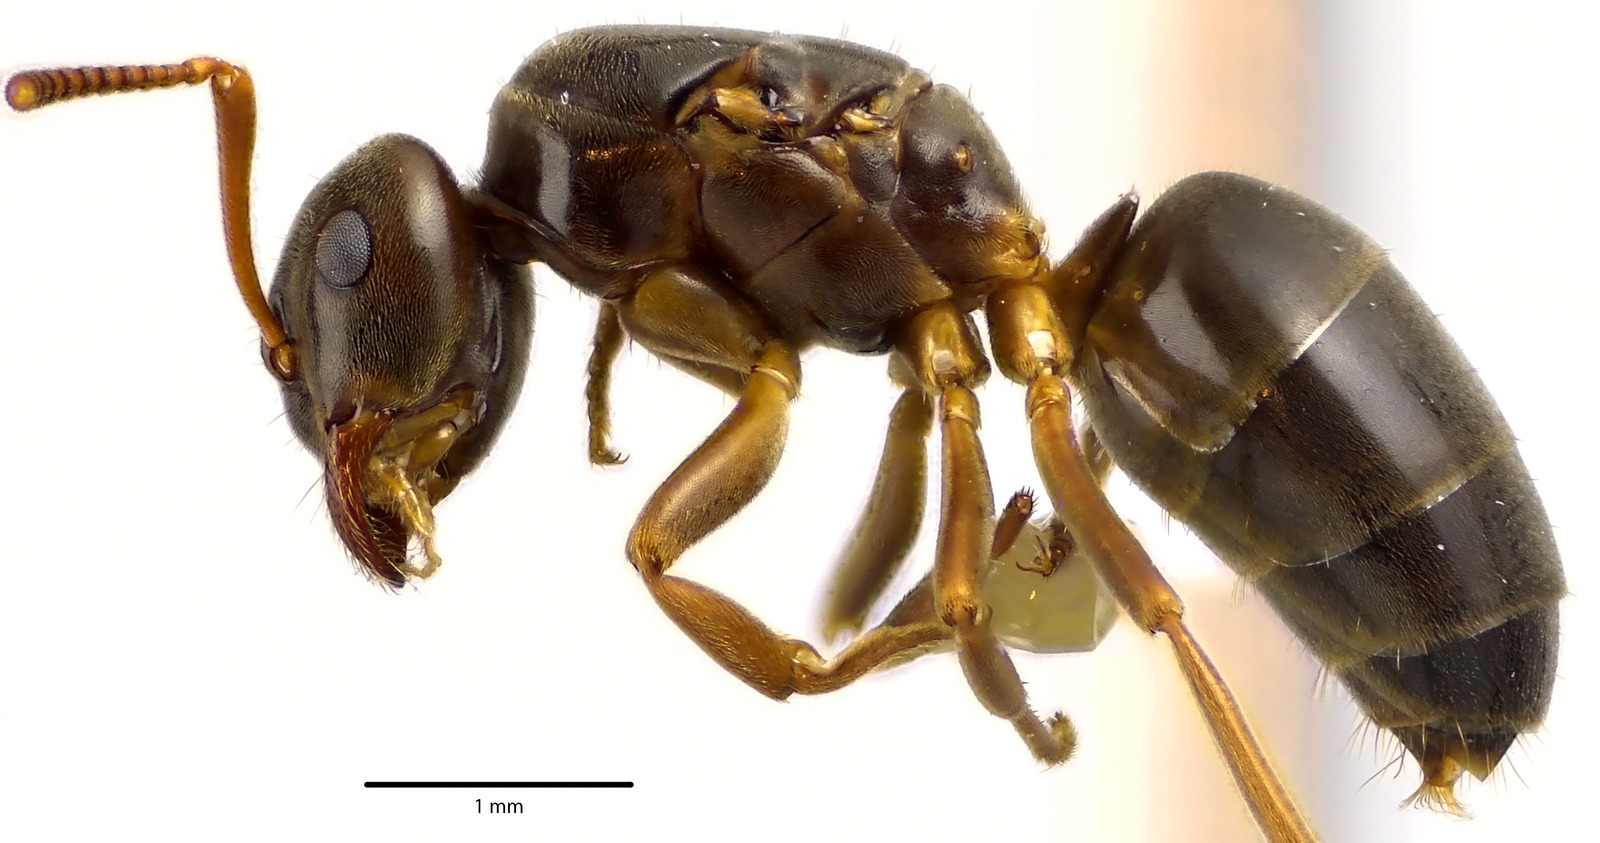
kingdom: Animalia
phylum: Arthropoda
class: Insecta
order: Hymenoptera
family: Formicidae
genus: Lasius
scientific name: Lasius aphidicola
